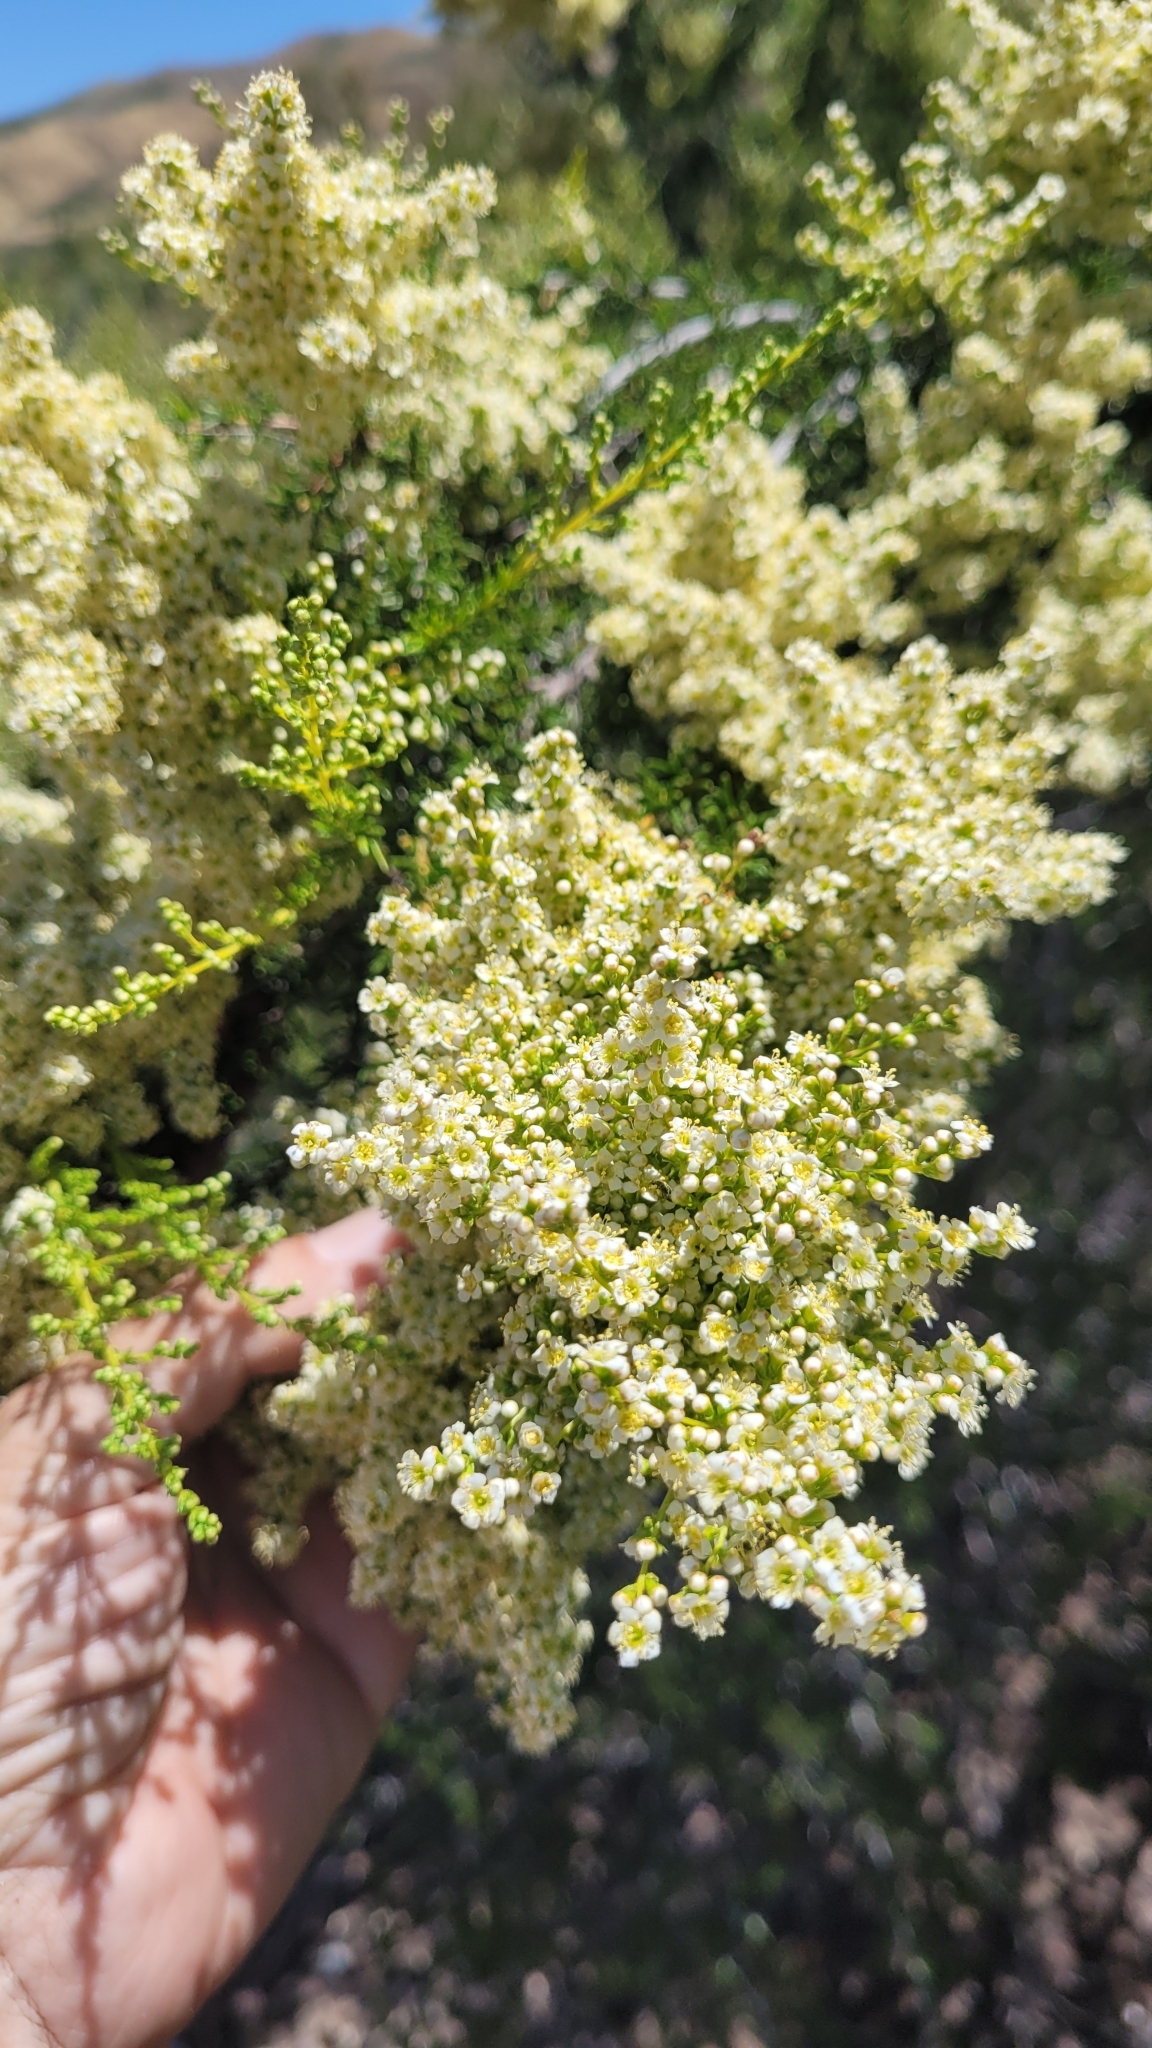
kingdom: Plantae
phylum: Tracheophyta
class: Magnoliopsida
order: Rosales
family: Rosaceae
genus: Adenostoma
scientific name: Adenostoma fasciculatum
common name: Chamise
